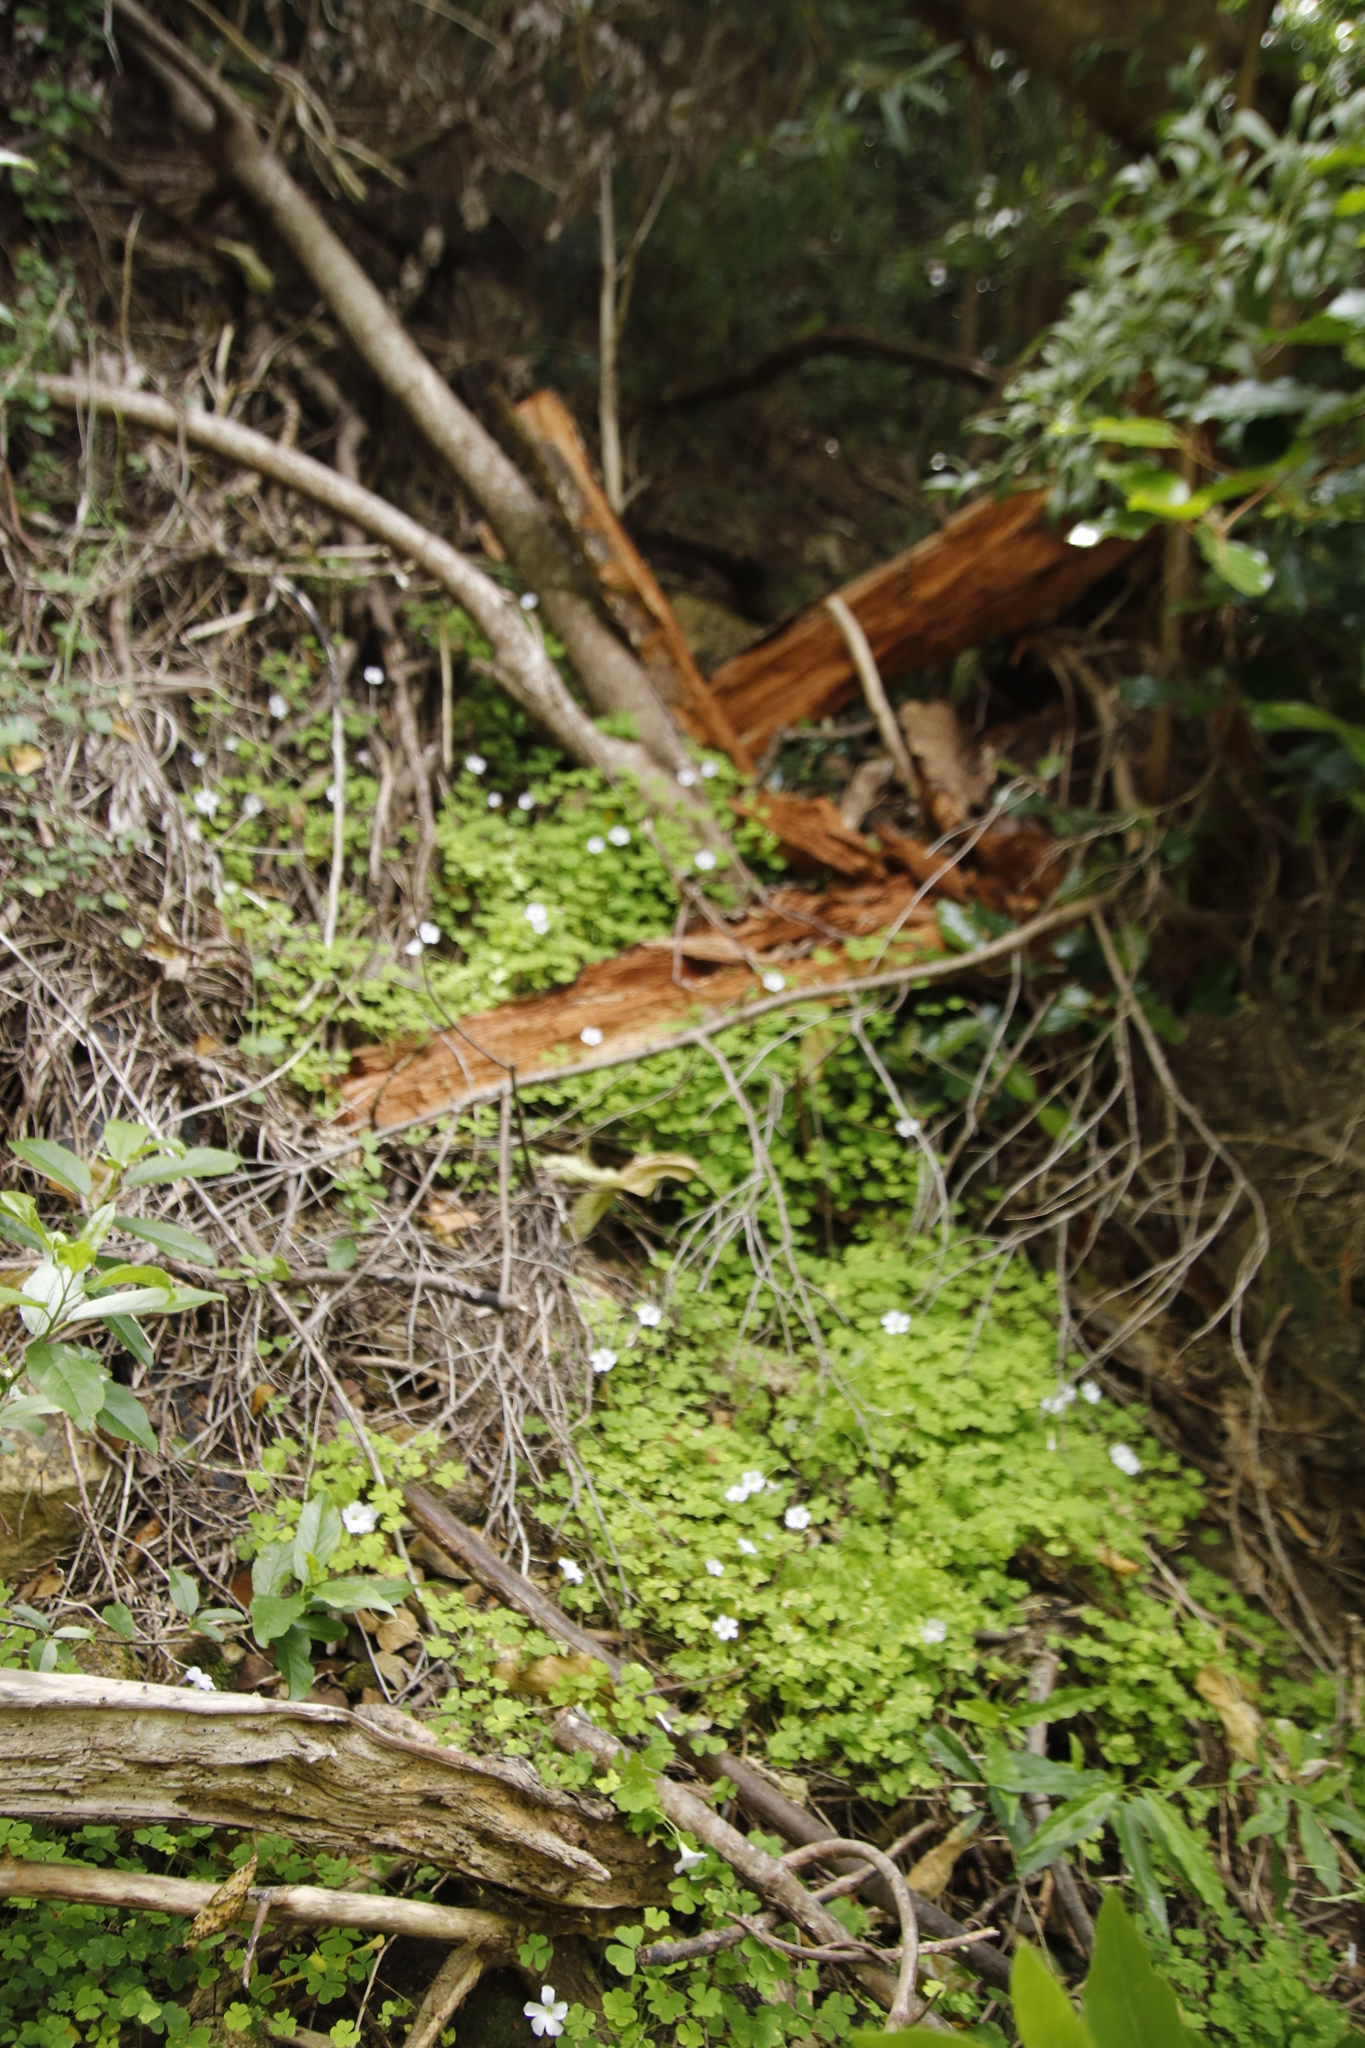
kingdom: Plantae
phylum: Tracheophyta
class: Magnoliopsida
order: Oxalidales
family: Oxalidaceae
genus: Oxalis
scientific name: Oxalis incarnata
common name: Pale pink-sorrel
